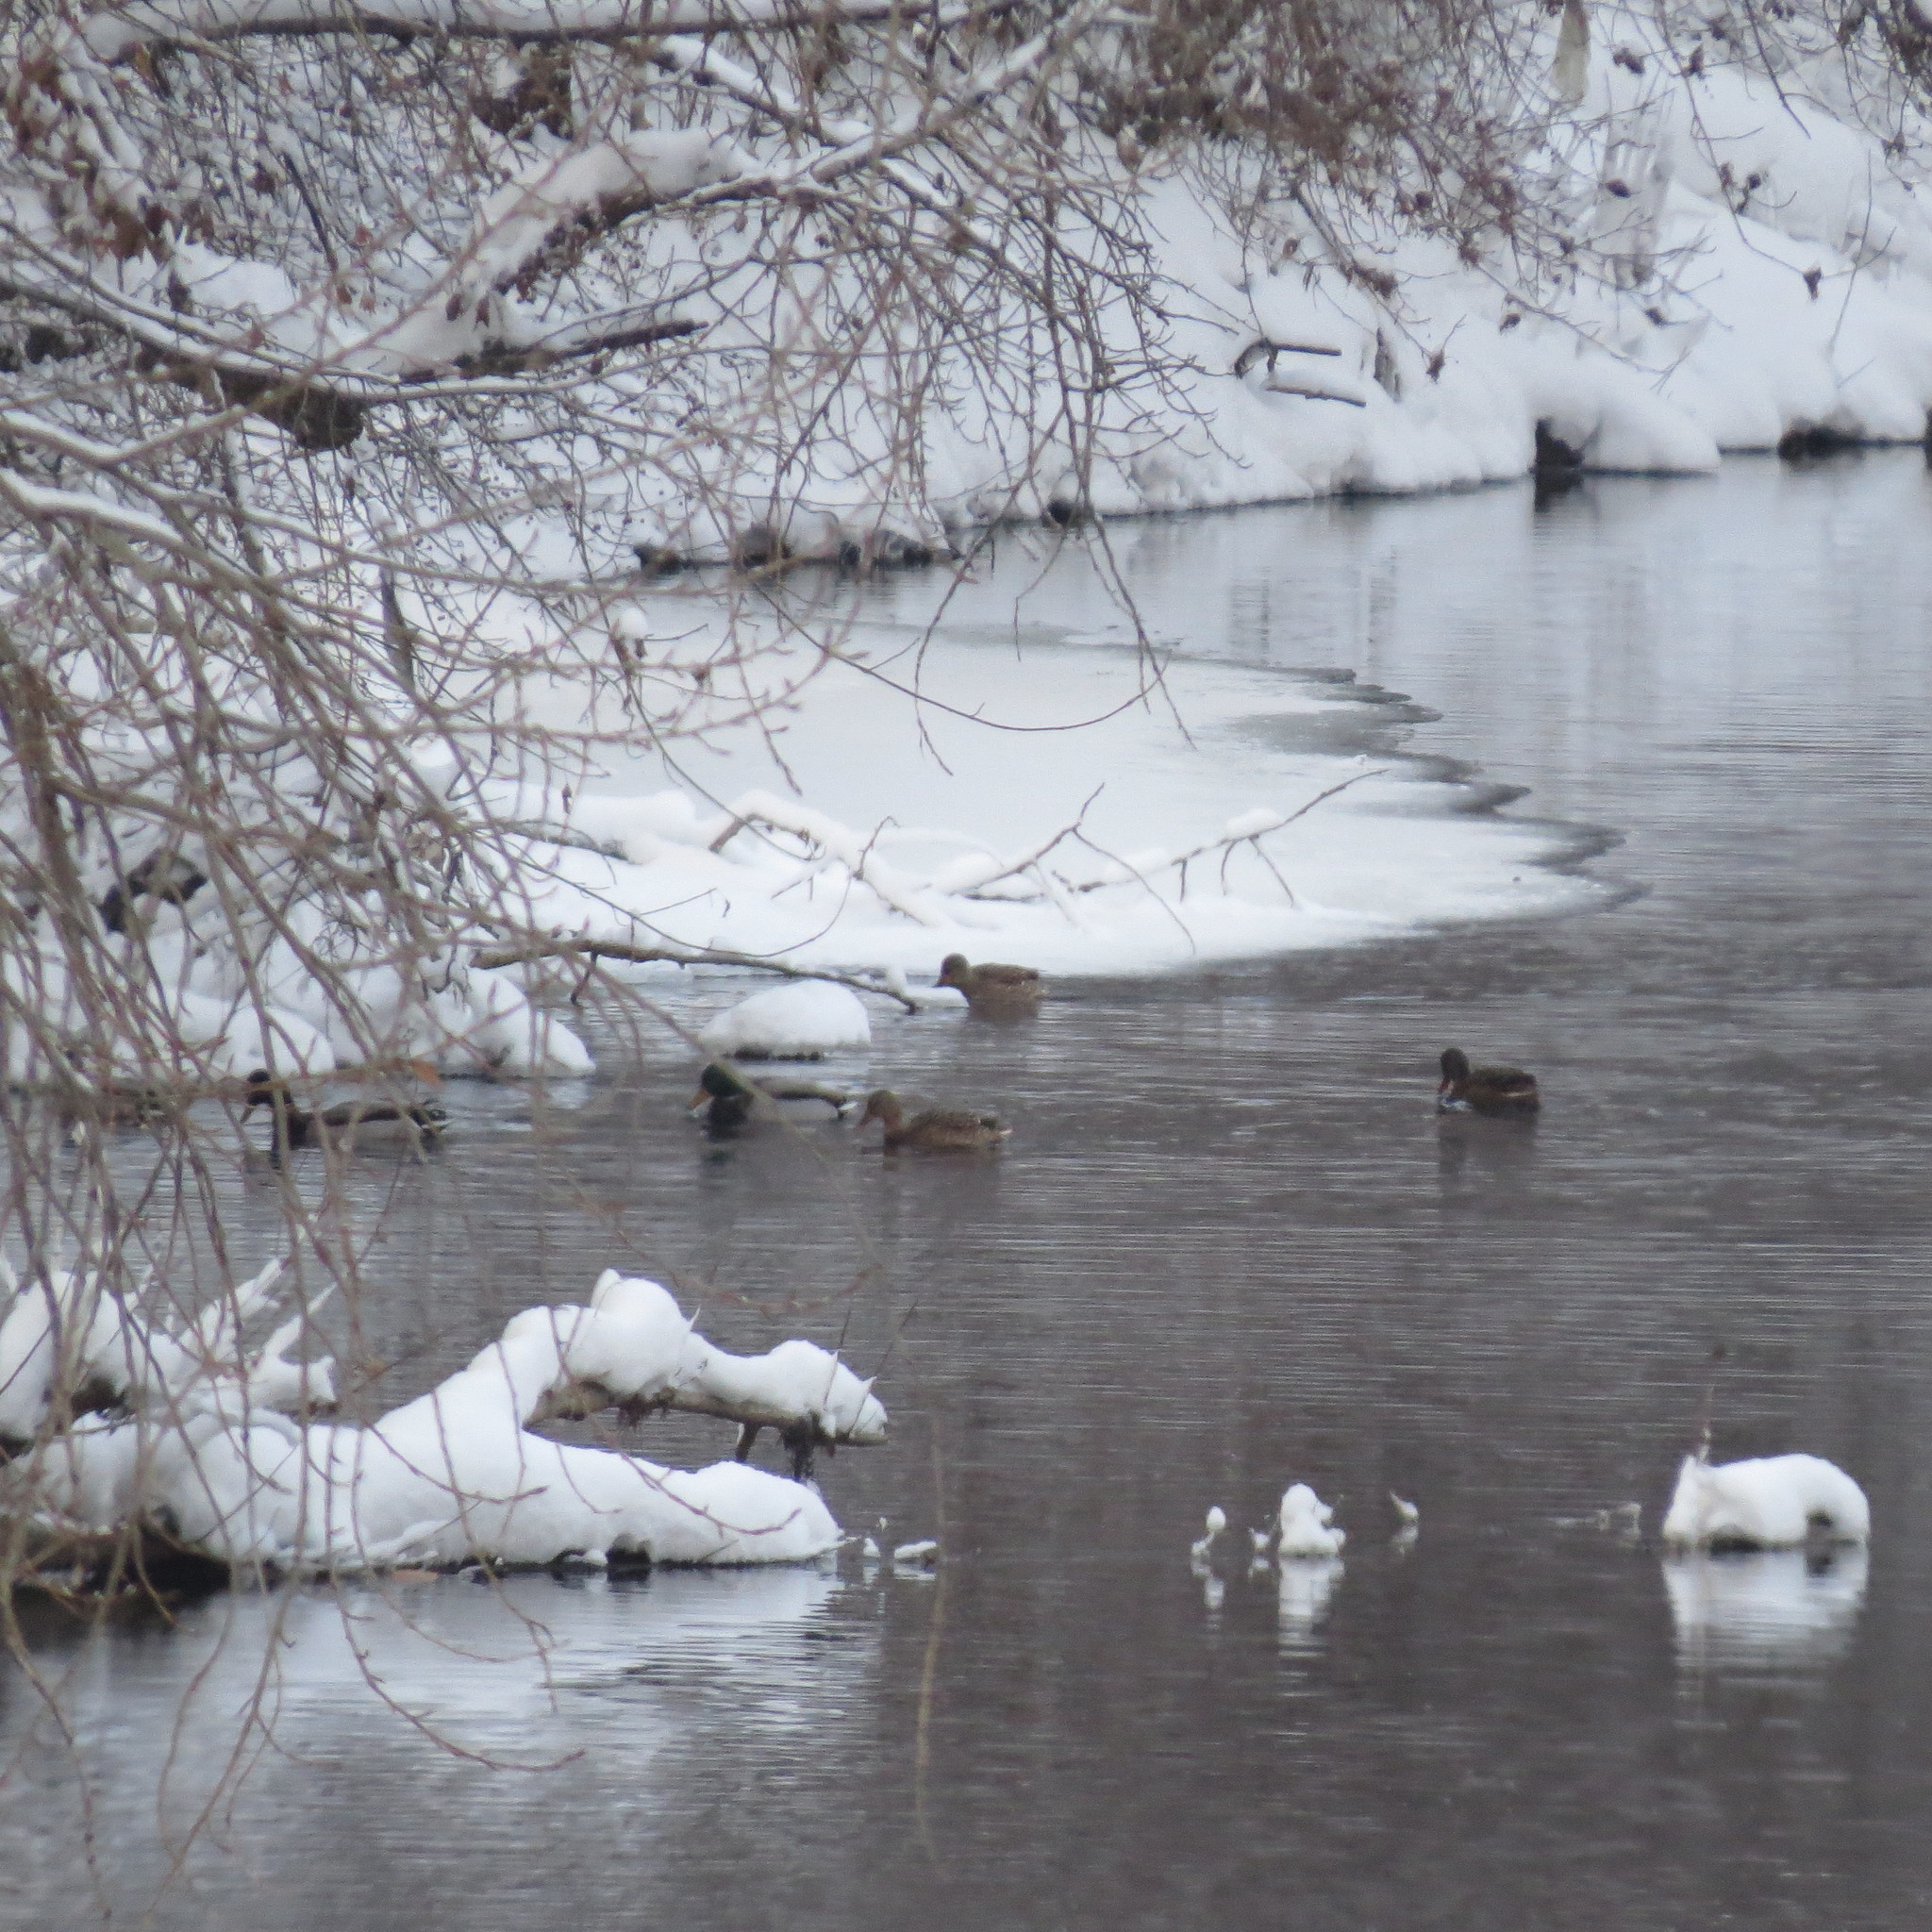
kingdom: Animalia
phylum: Chordata
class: Aves
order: Anseriformes
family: Anatidae
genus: Anas
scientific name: Anas platyrhynchos
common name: Mallard
